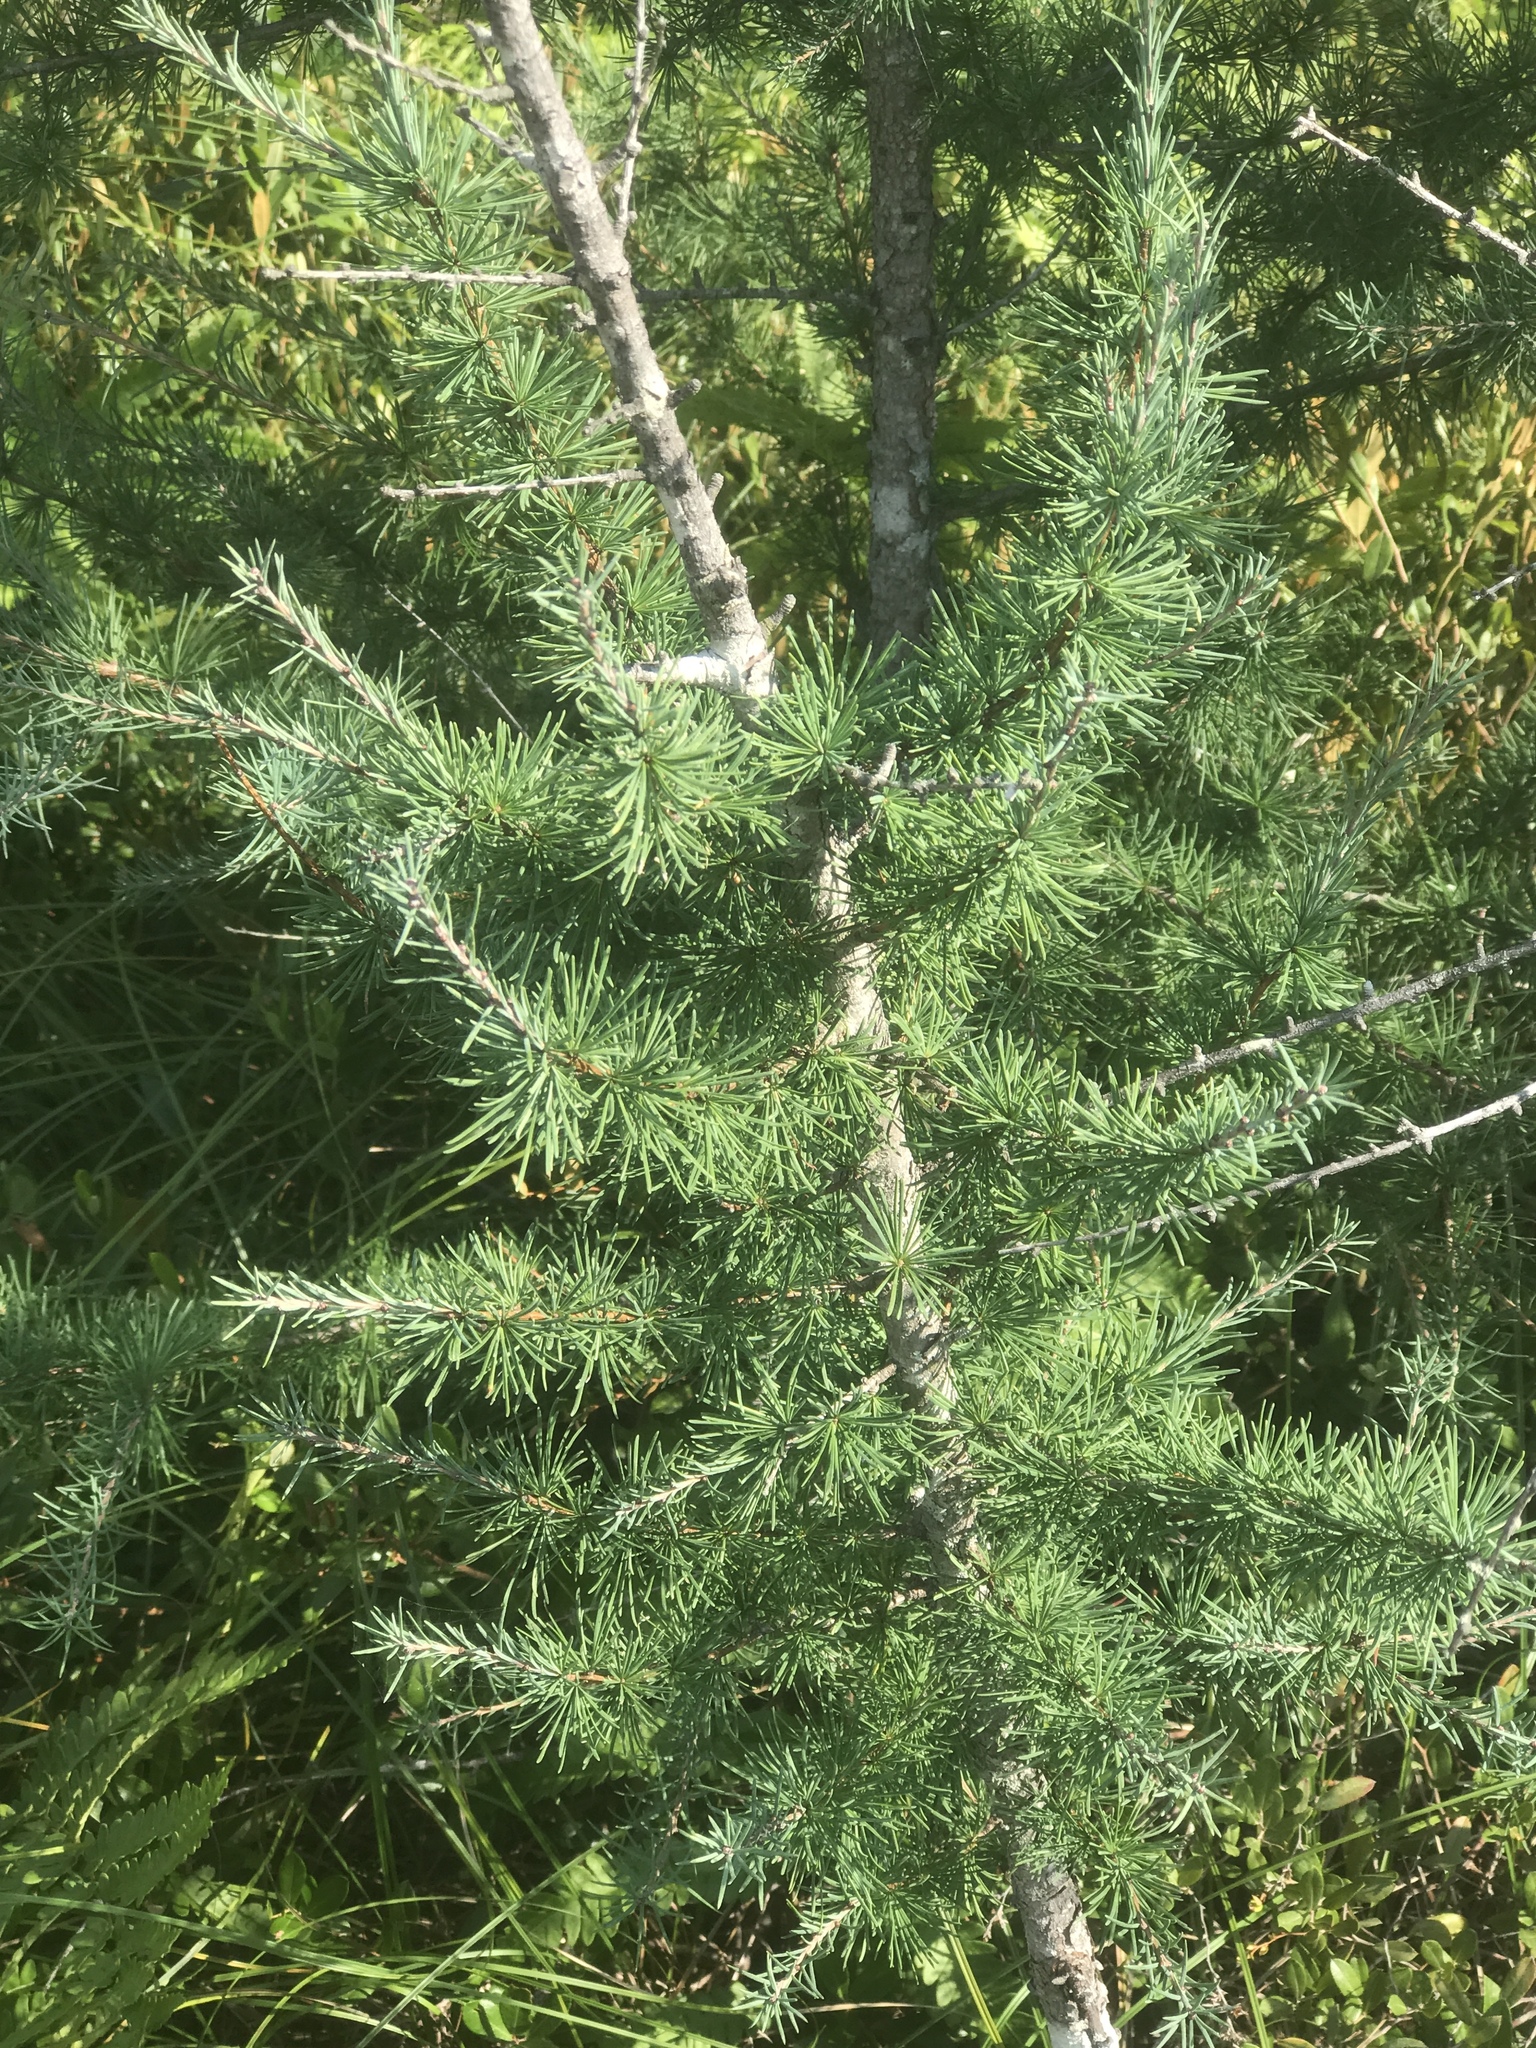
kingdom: Plantae
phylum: Tracheophyta
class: Pinopsida
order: Pinales
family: Pinaceae
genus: Larix
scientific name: Larix laricina
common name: American larch
